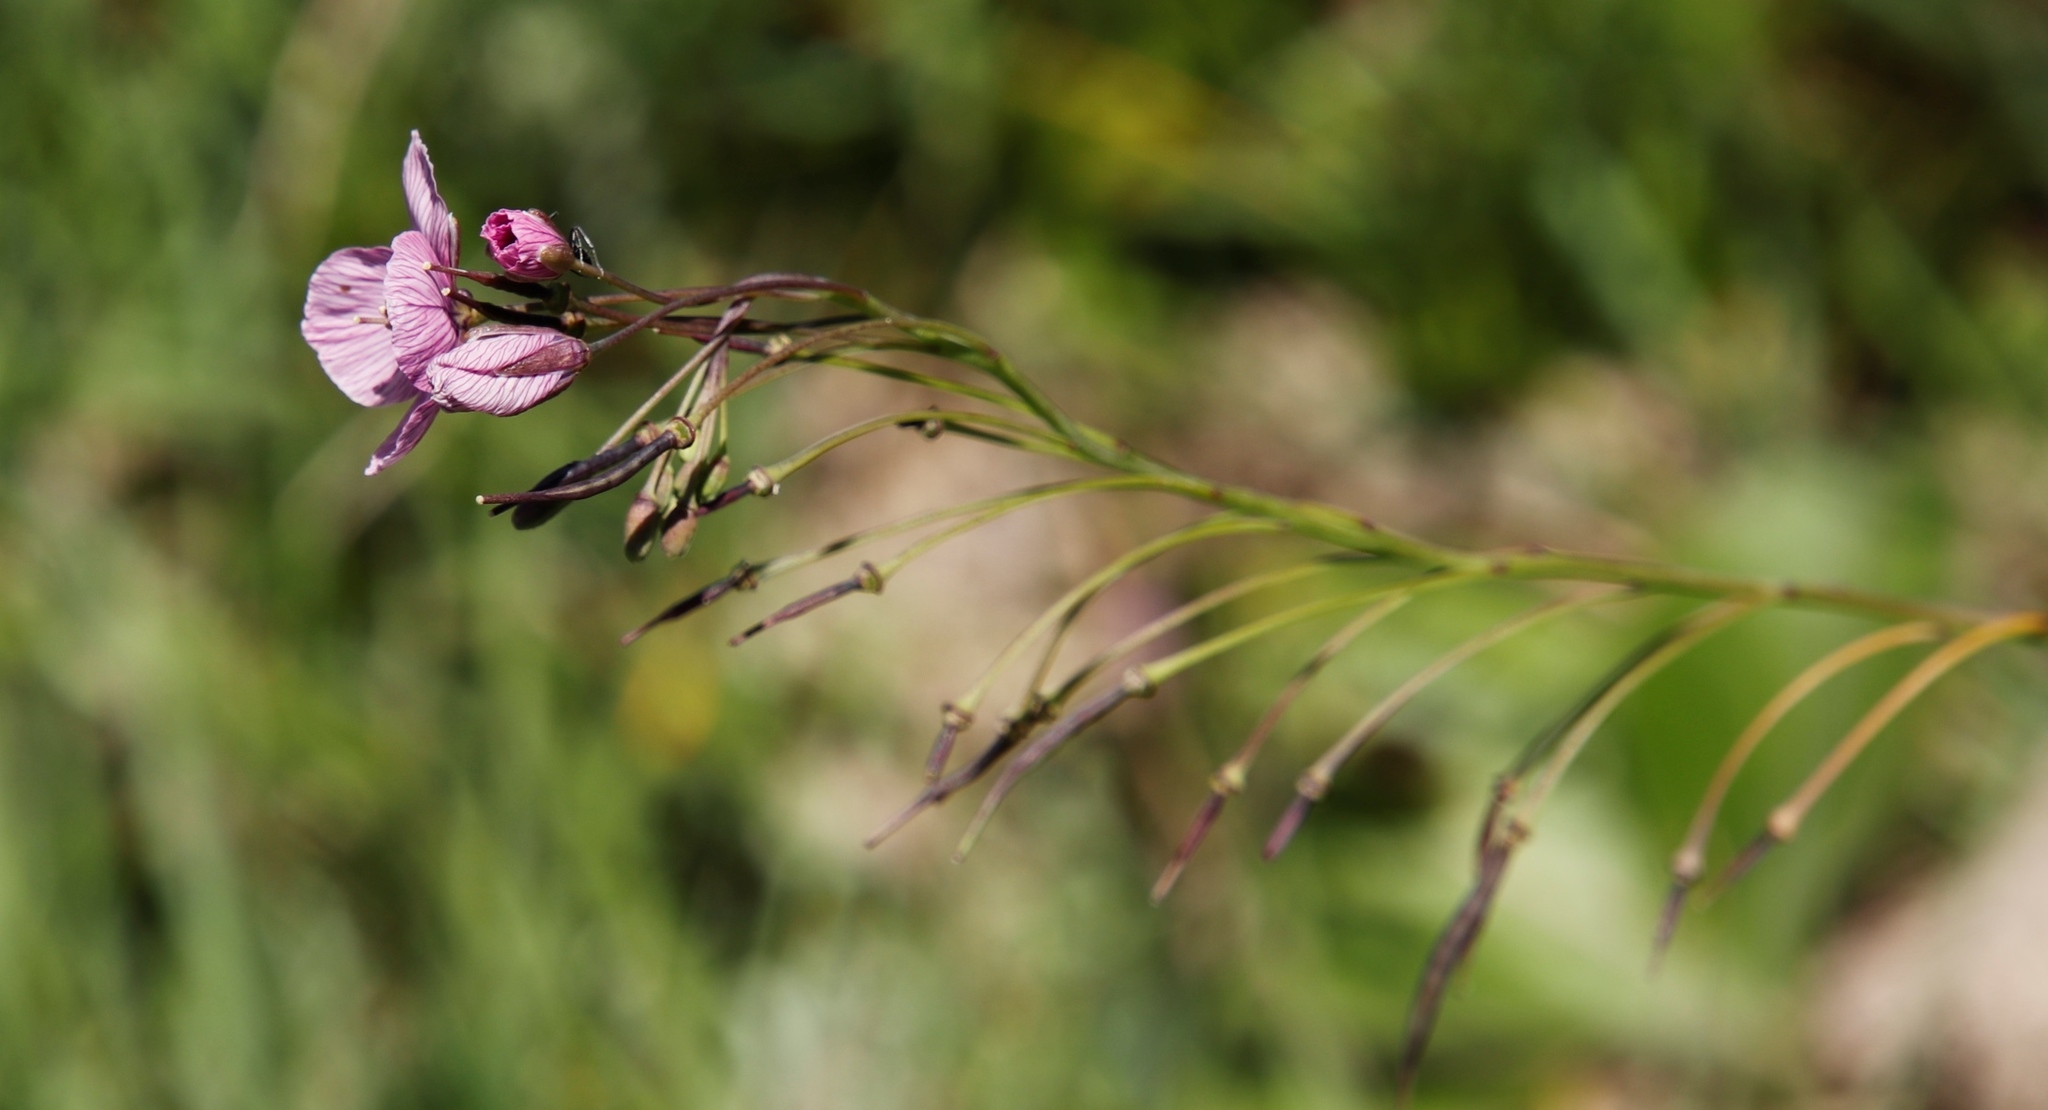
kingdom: Plantae
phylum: Tracheophyta
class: Magnoliopsida
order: Brassicales
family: Brassicaceae
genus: Heliophila
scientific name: Heliophila rigidiuscula
